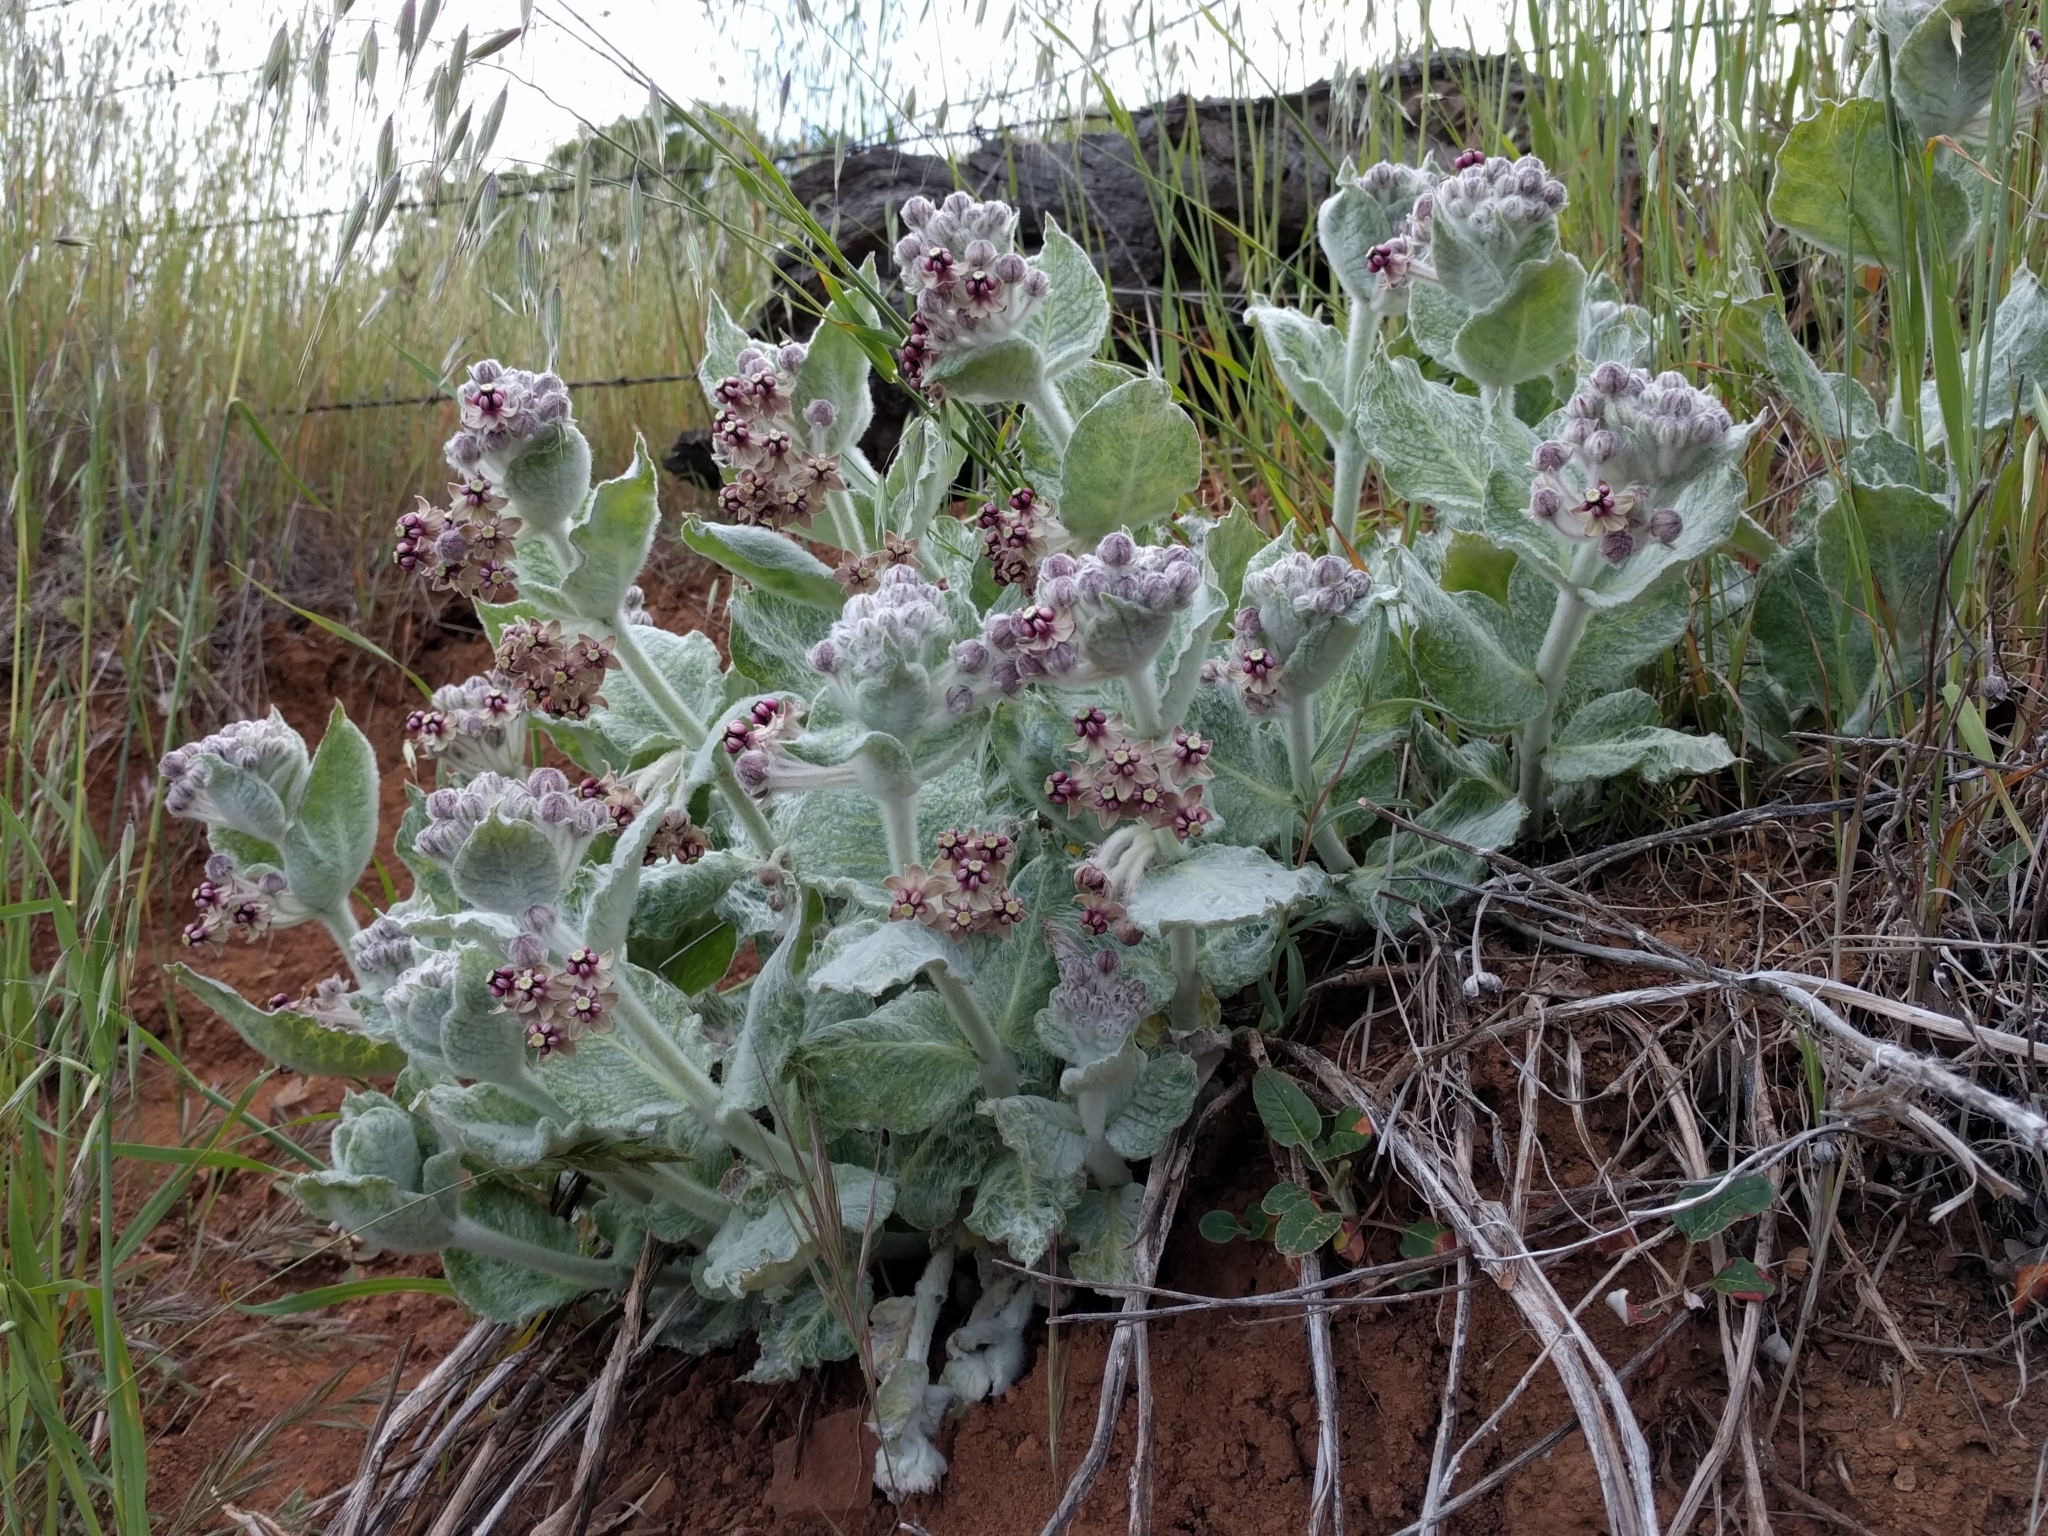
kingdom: Plantae
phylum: Tracheophyta
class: Magnoliopsida
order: Gentianales
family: Apocynaceae
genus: Asclepias
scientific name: Asclepias californica
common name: California milkweed
